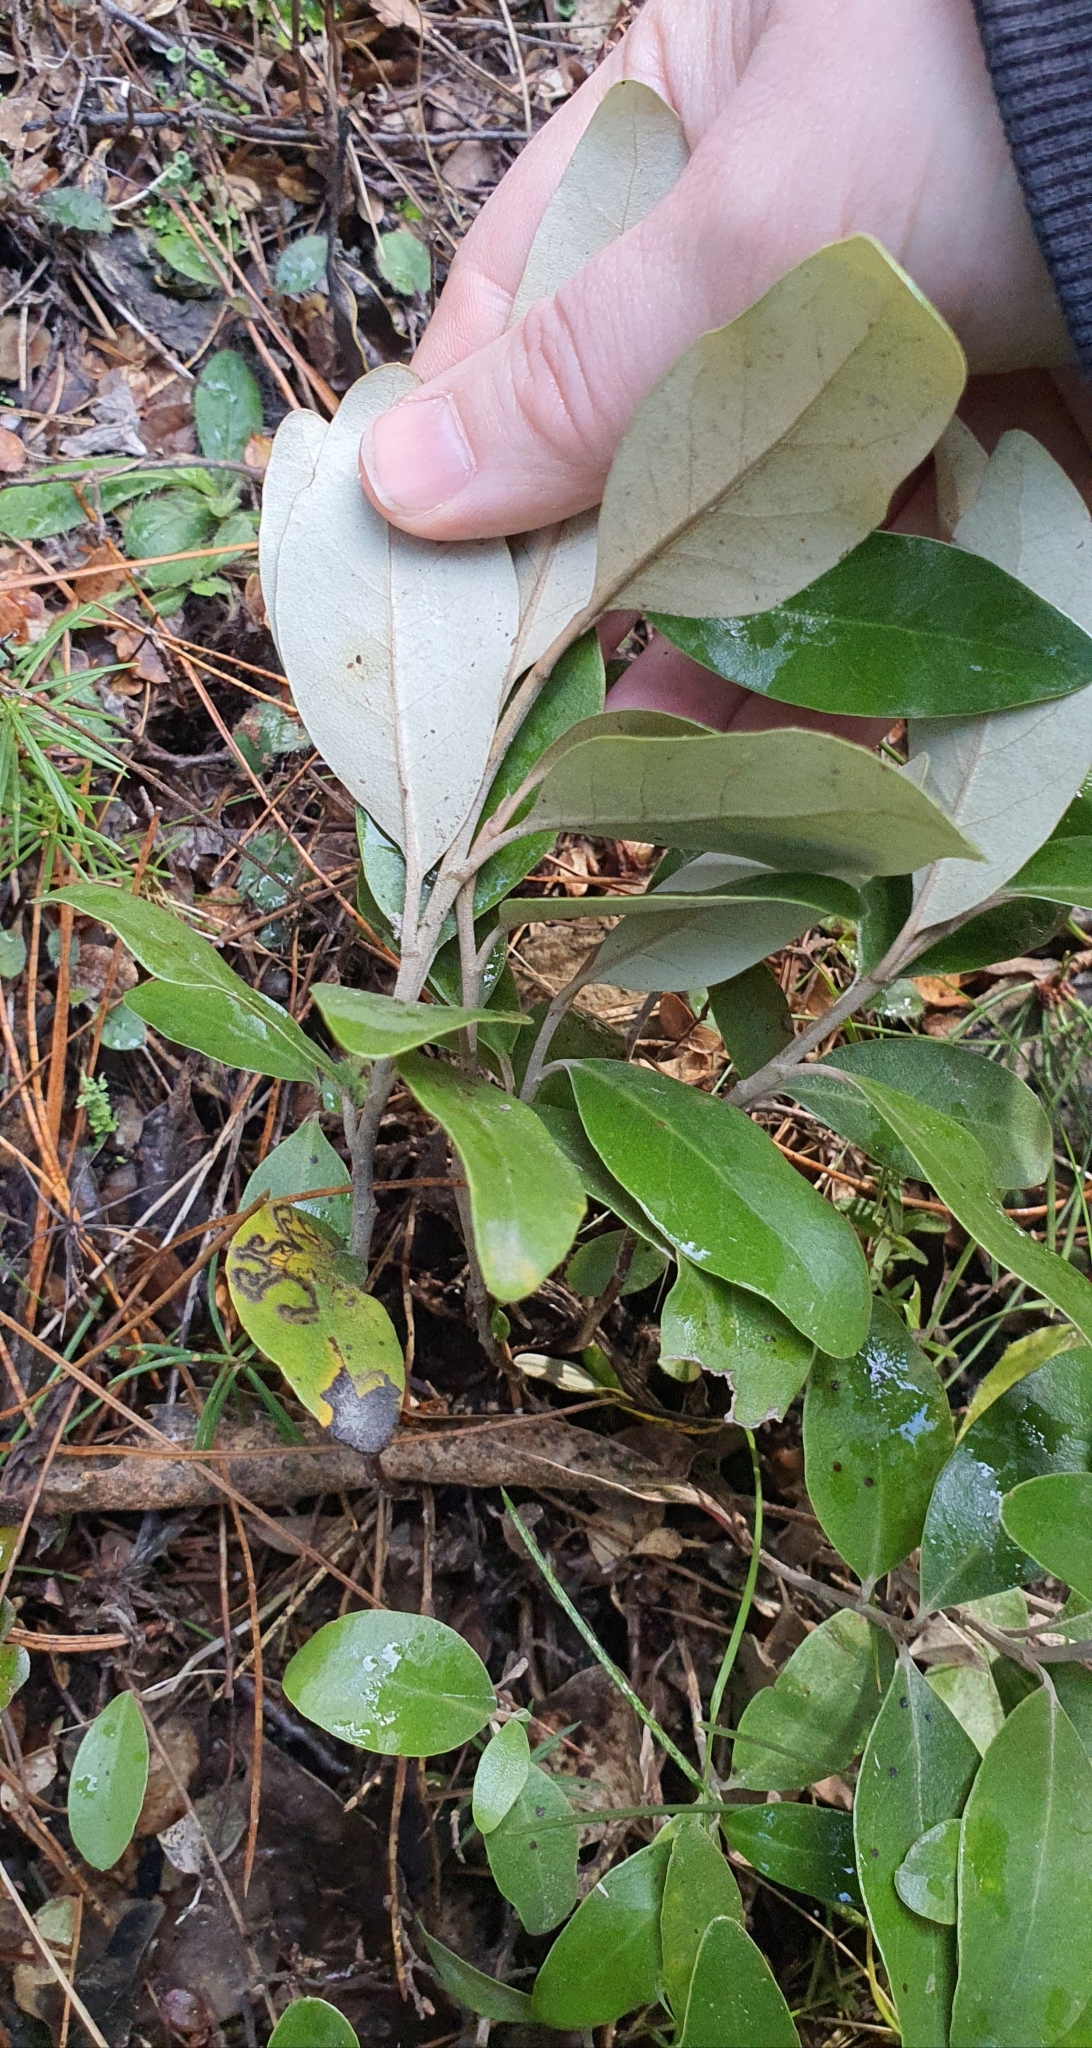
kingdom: Plantae
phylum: Tracheophyta
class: Magnoliopsida
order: Asterales
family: Asteraceae
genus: Olearia
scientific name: Olearia avicenniifolia
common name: Mangrove-leaf daisybush
